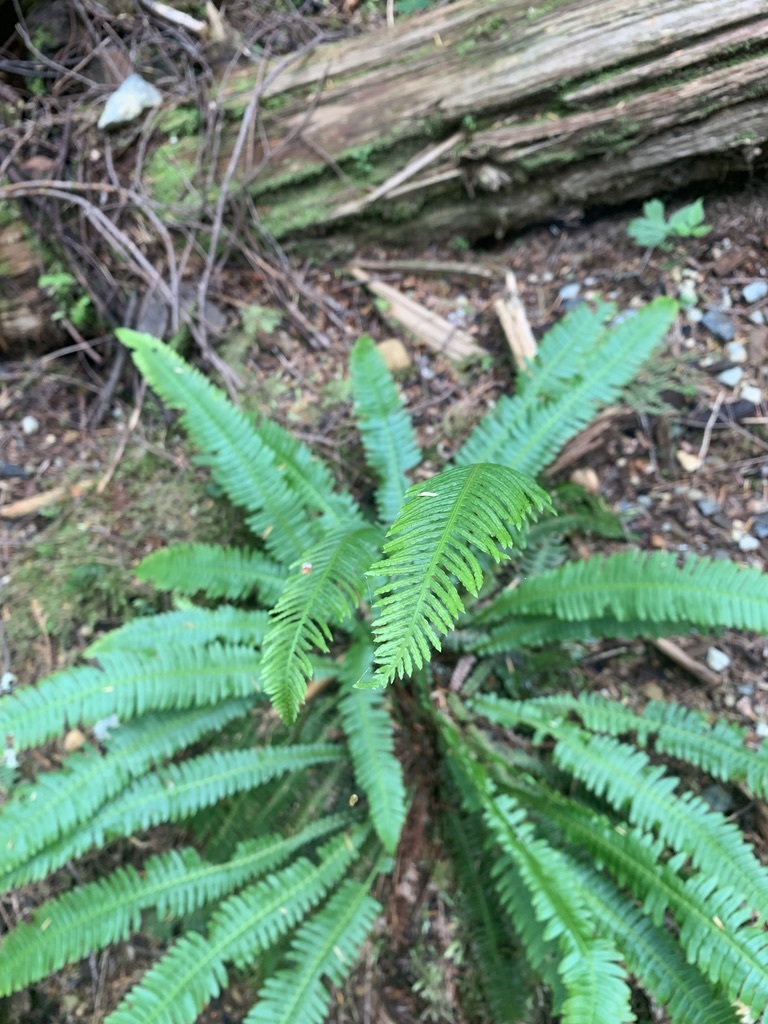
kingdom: Plantae
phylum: Tracheophyta
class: Polypodiopsida
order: Polypodiales
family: Blechnaceae
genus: Struthiopteris
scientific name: Struthiopteris spicant
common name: Deer fern
